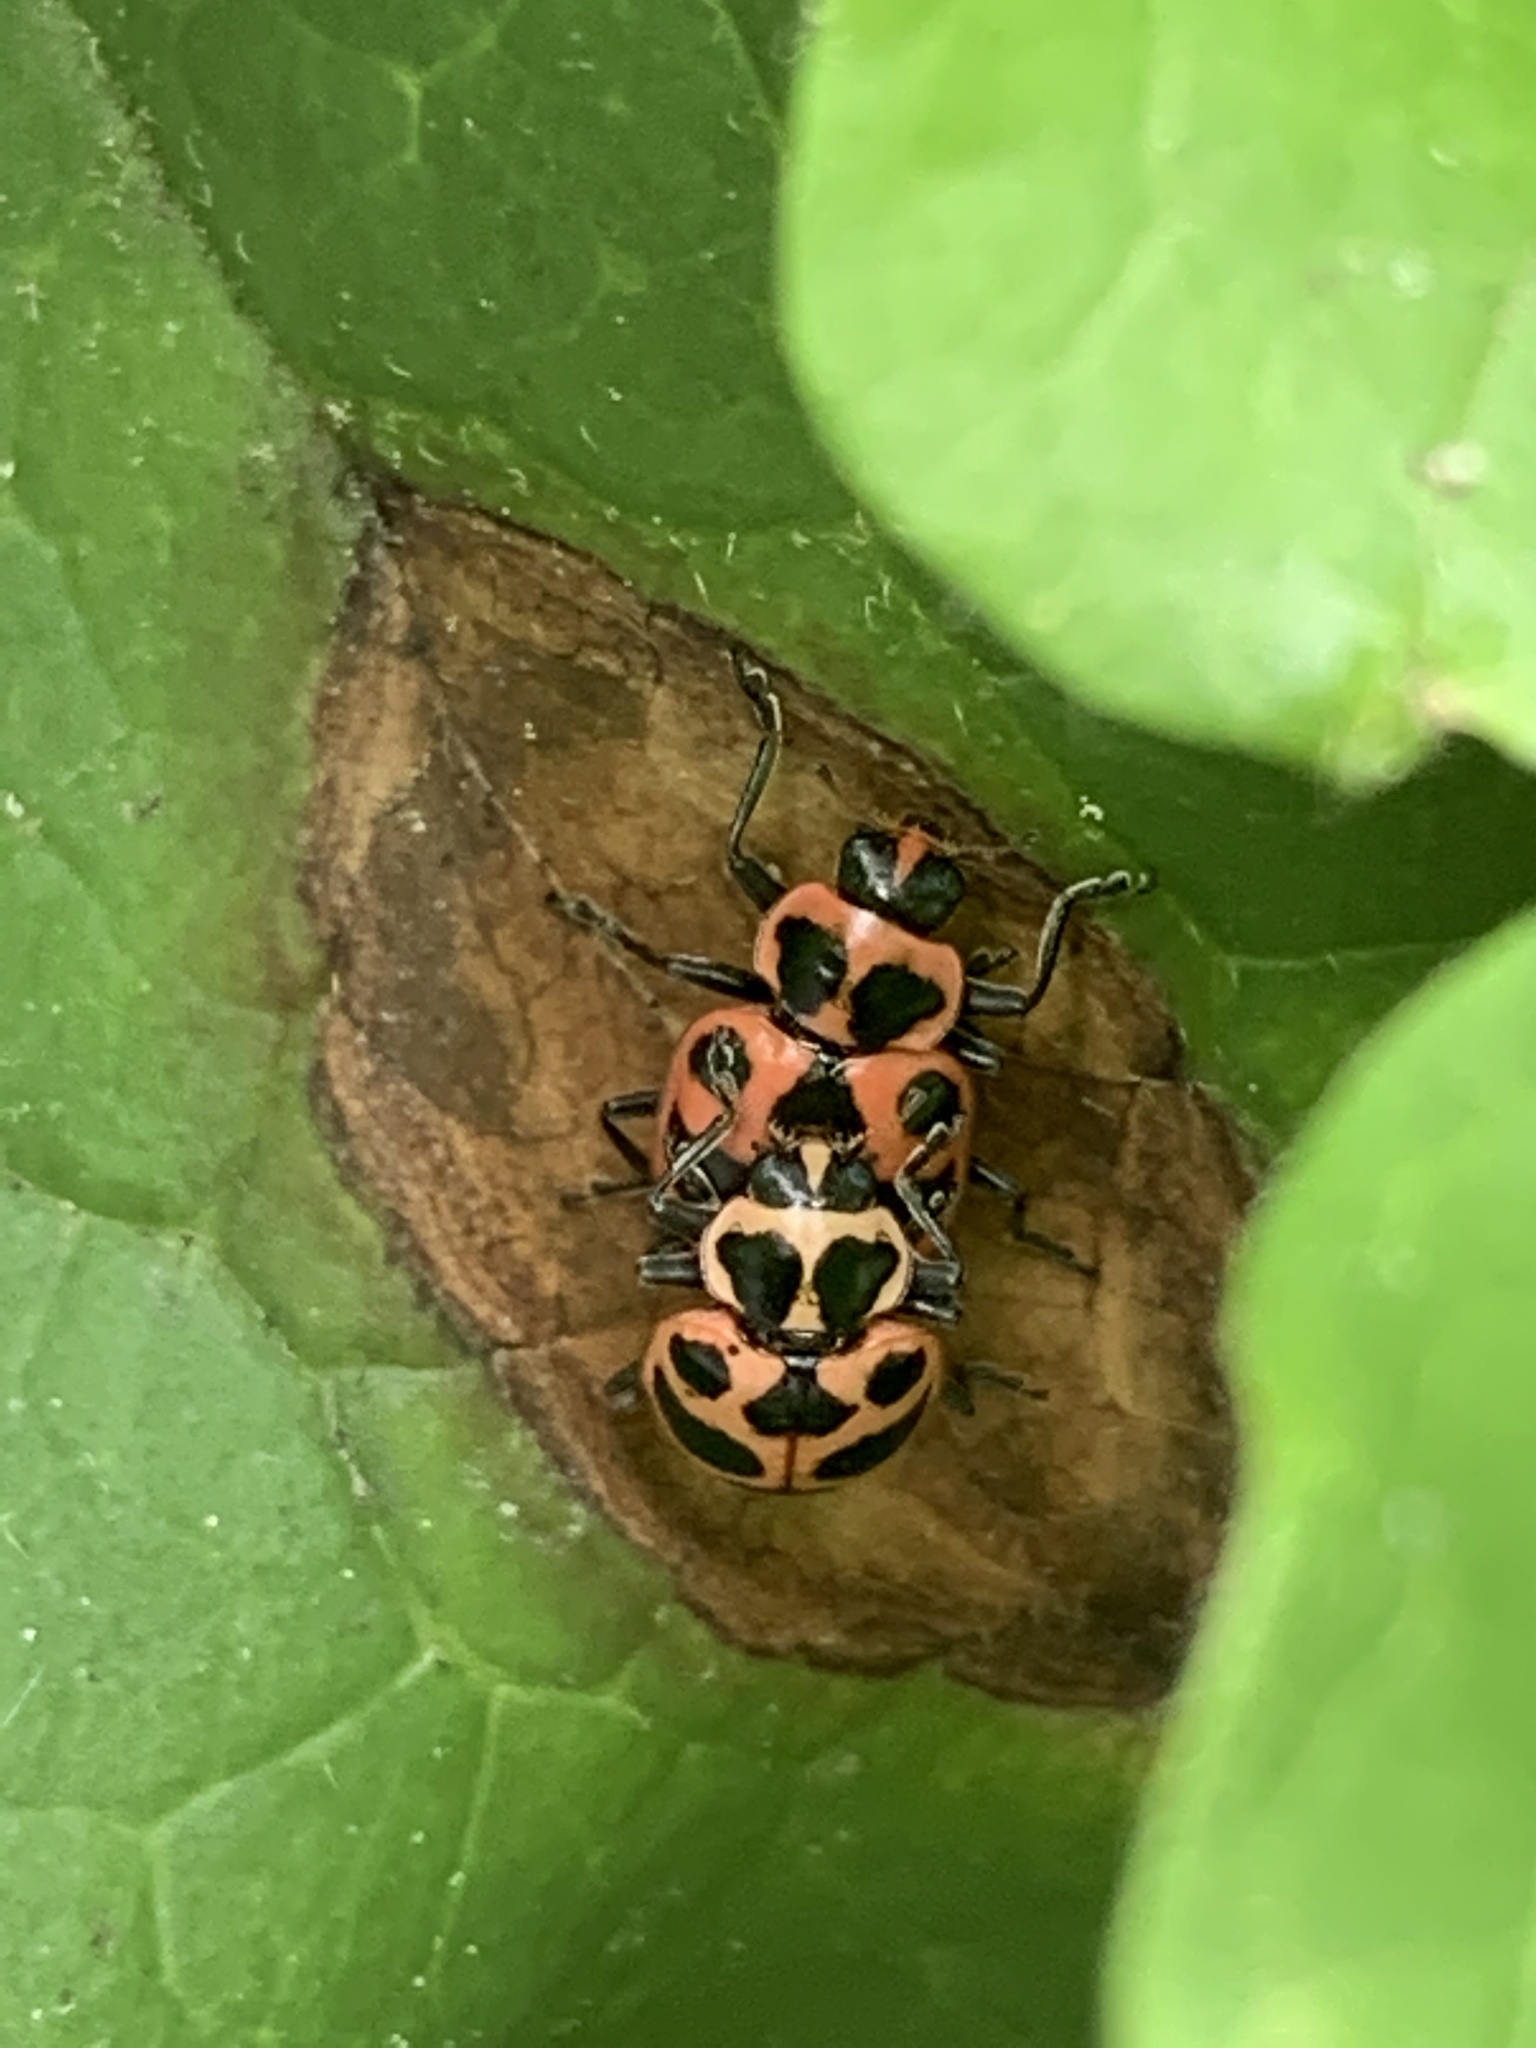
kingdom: Animalia
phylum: Arthropoda
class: Insecta
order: Coleoptera
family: Coccinellidae
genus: Coleomegilla
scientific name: Coleomegilla maculata
